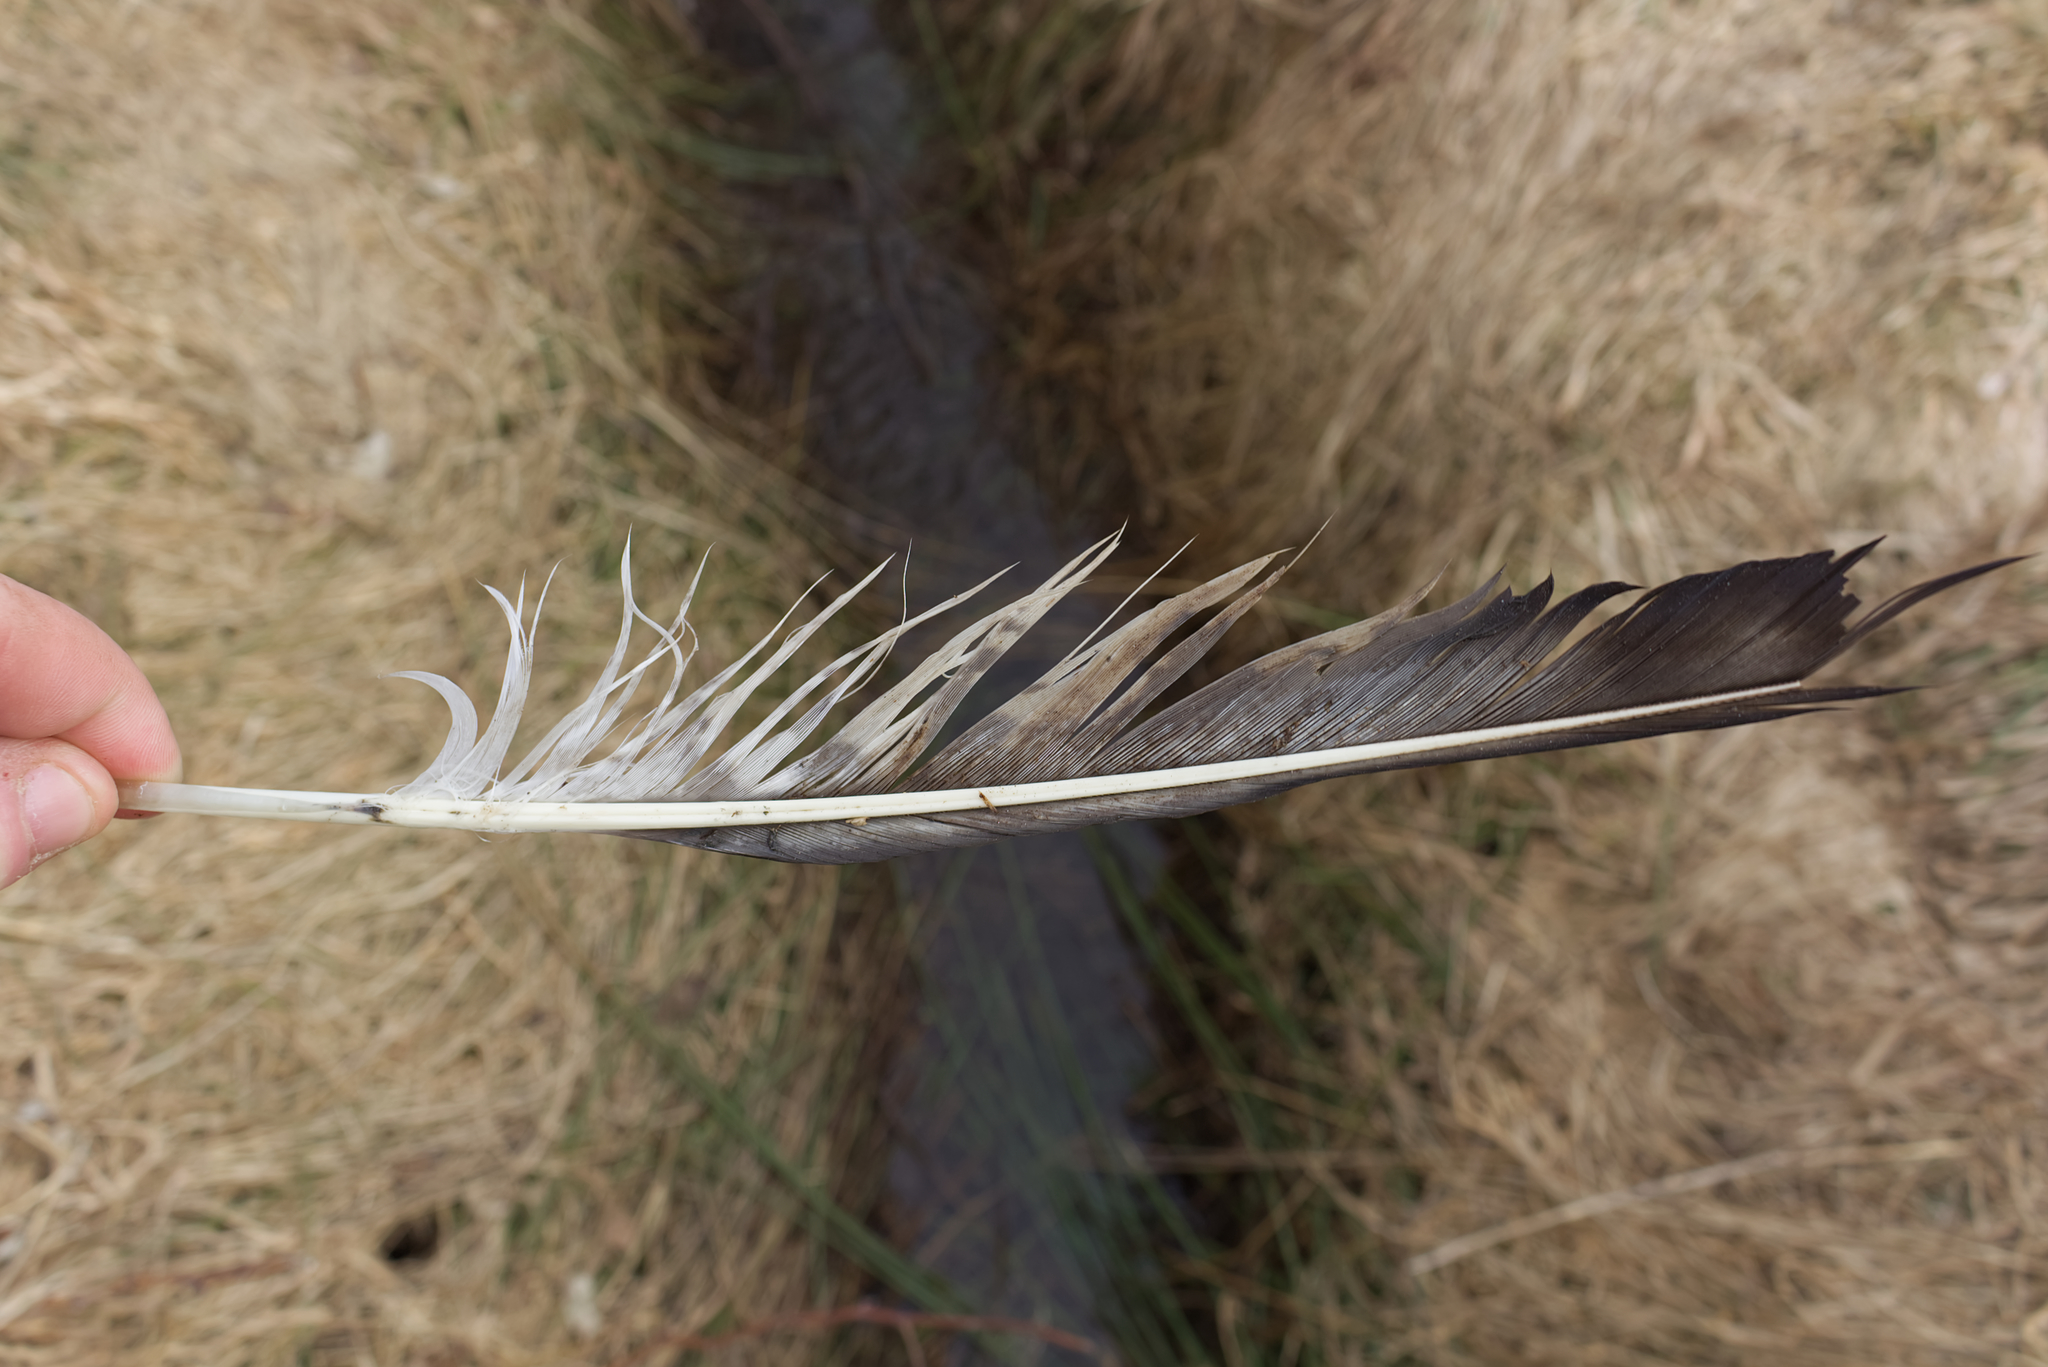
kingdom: Animalia
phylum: Chordata
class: Aves
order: Accipitriformes
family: Accipitridae
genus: Buteo
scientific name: Buteo buteo
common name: Common buzzard
